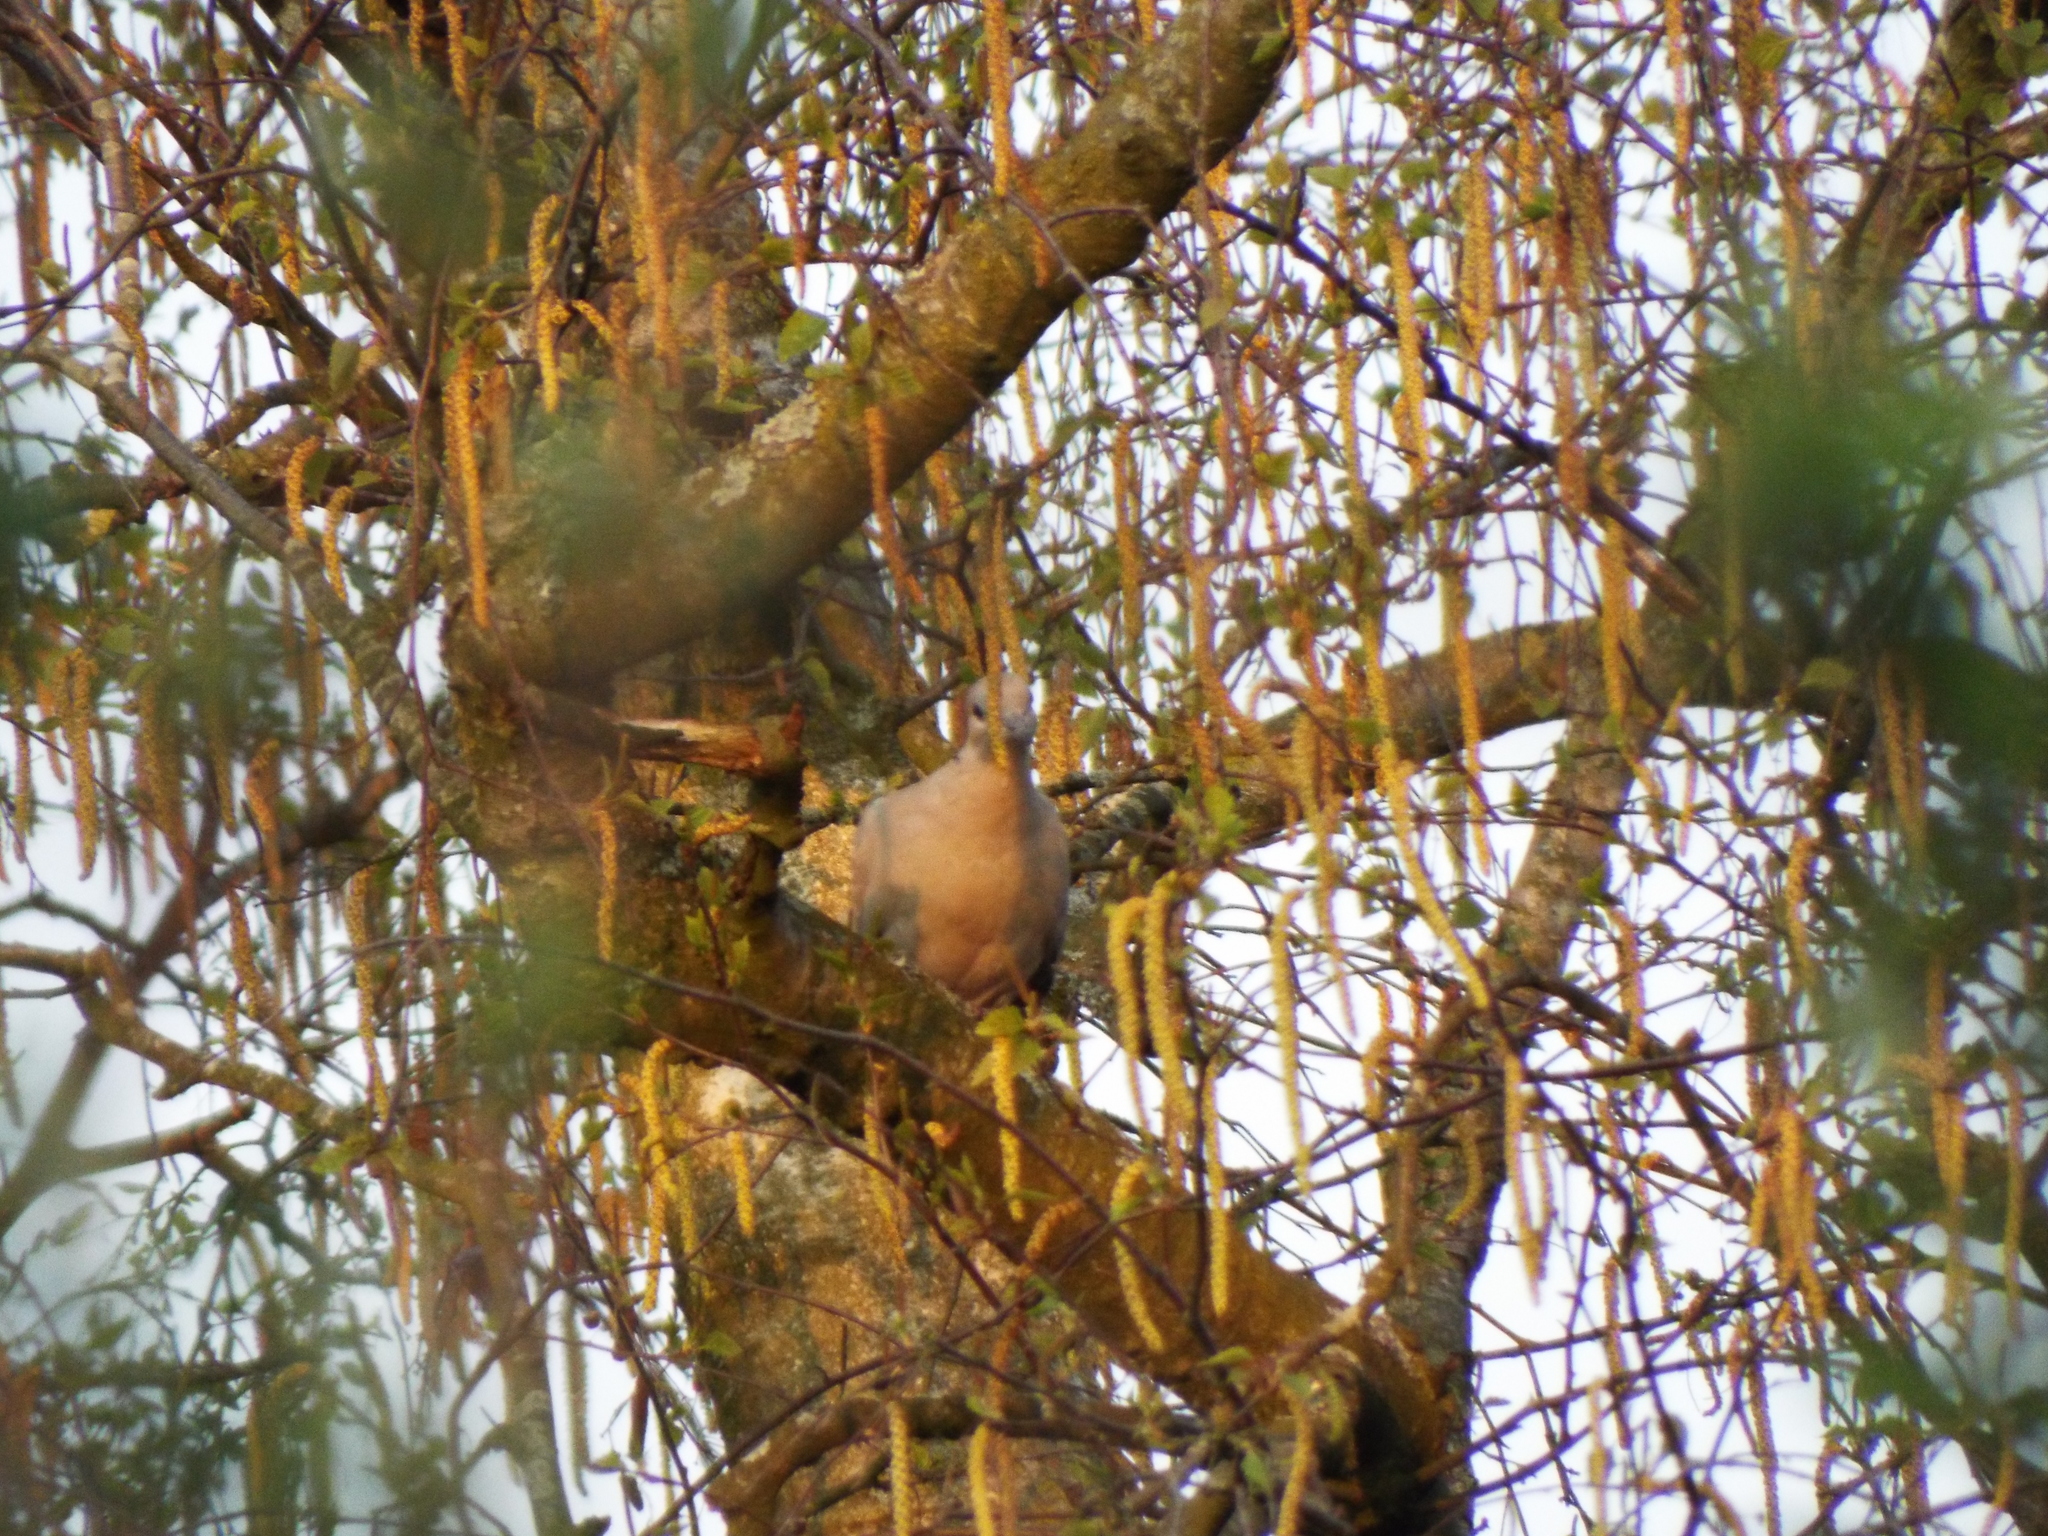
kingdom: Animalia
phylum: Chordata
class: Aves
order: Columbiformes
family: Columbidae
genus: Streptopelia
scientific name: Streptopelia decaocto
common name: Eurasian collared dove
